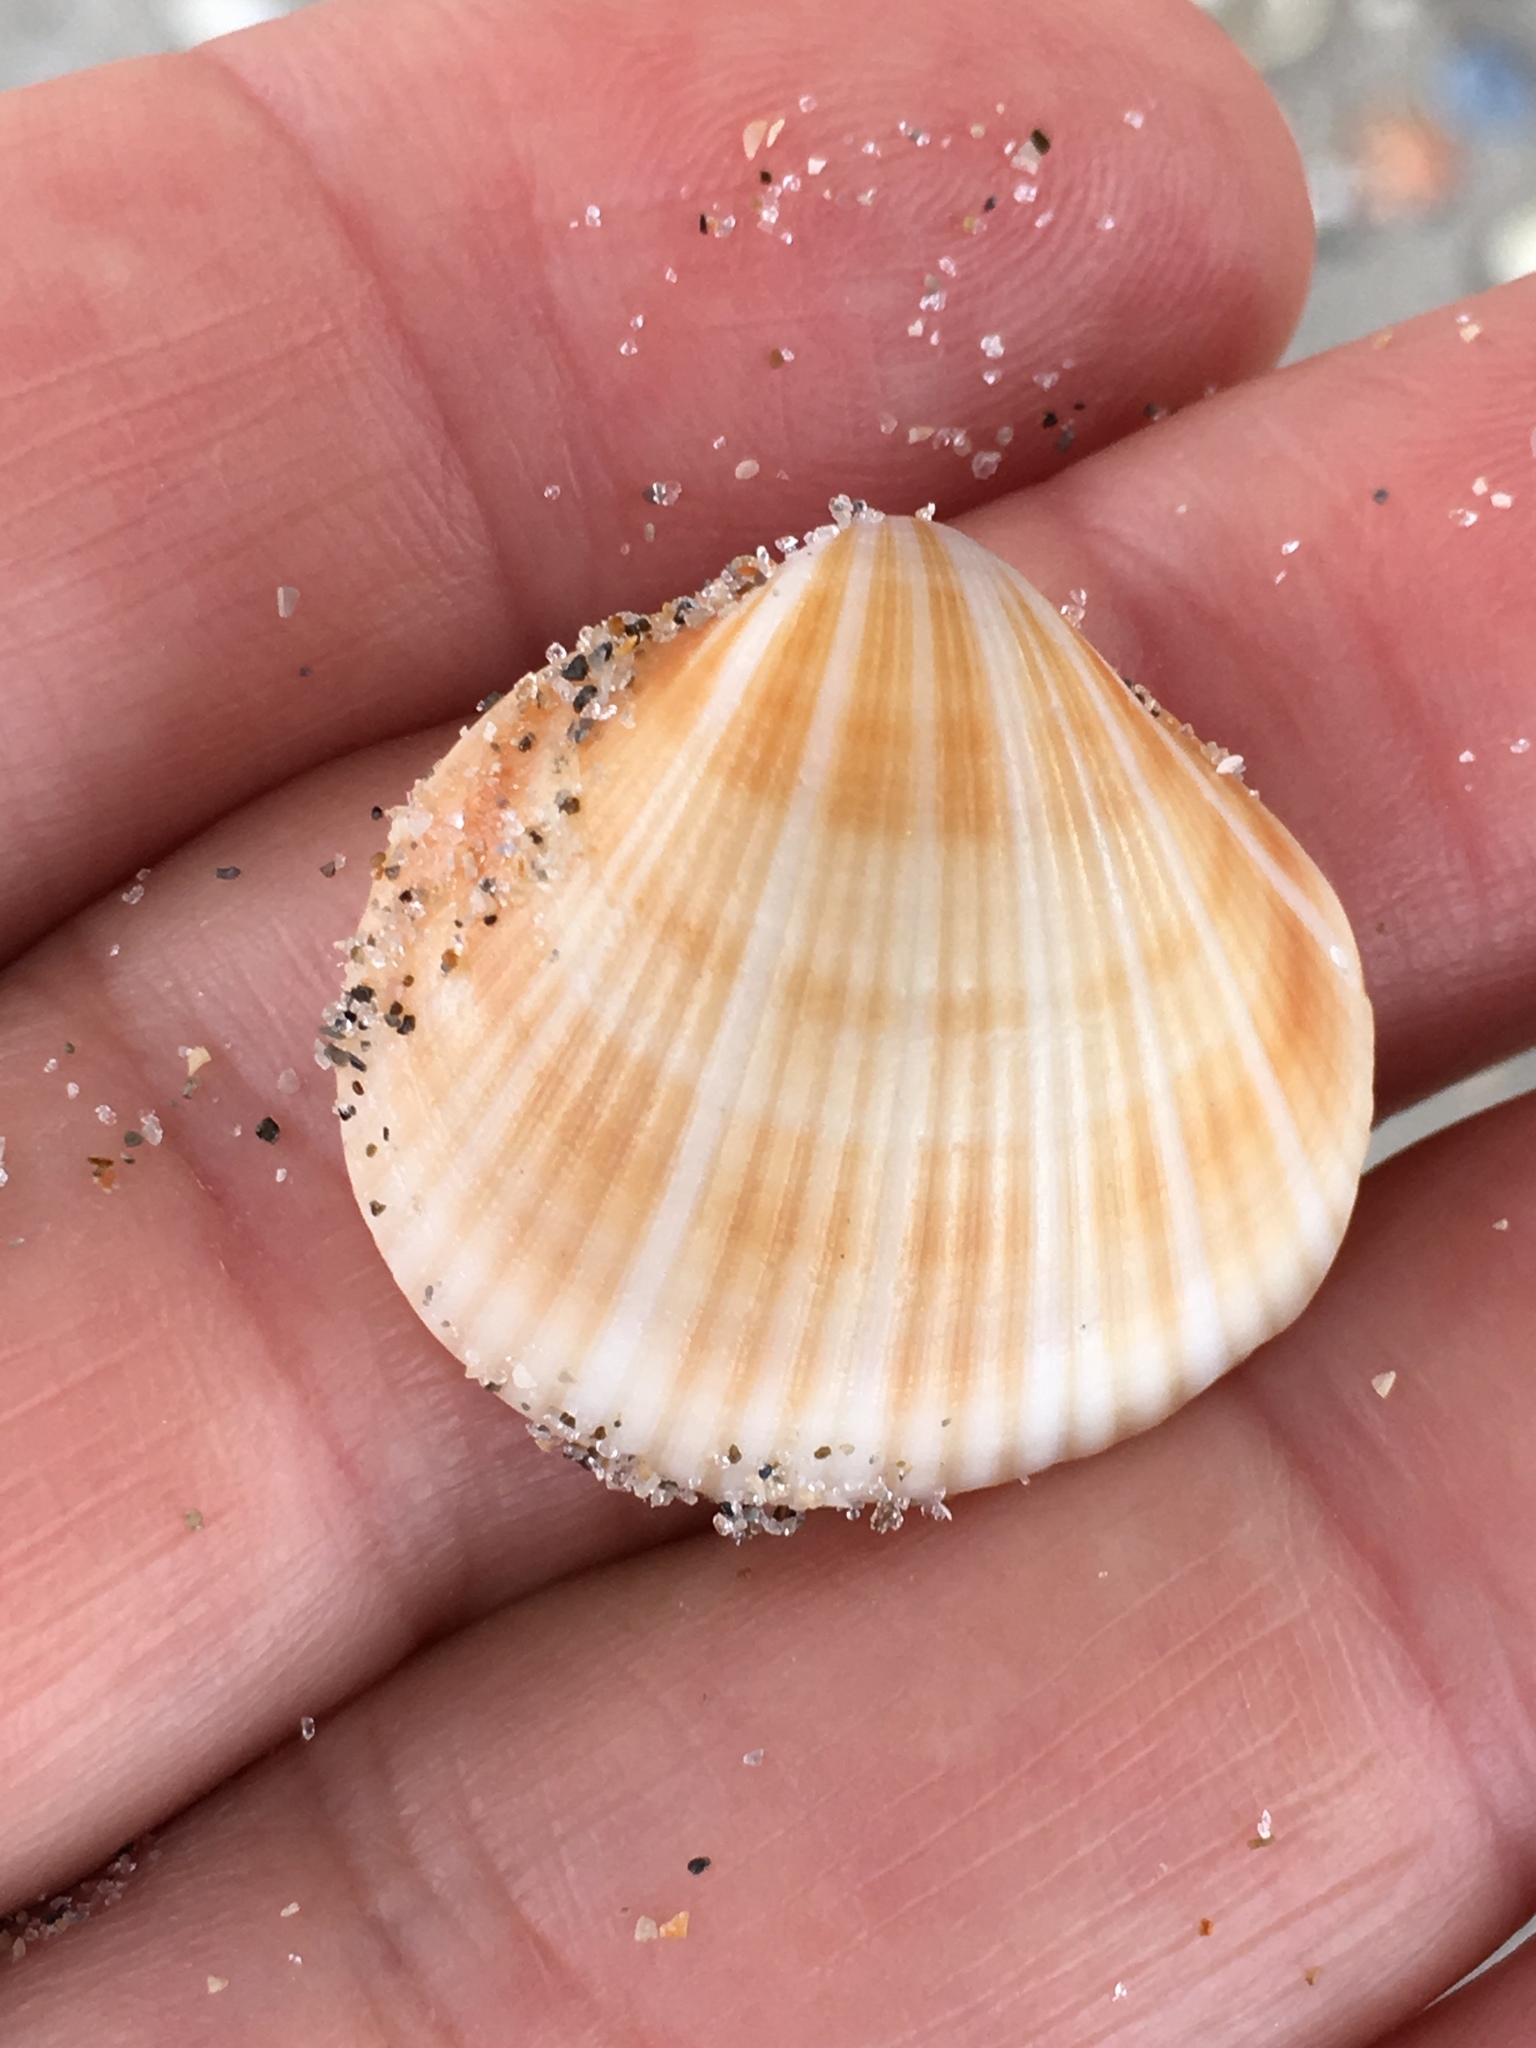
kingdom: Animalia
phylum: Mollusca
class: Bivalvia
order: Arcida
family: Glycymerididae
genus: Glycymeris
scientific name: Glycymeris spectralis
